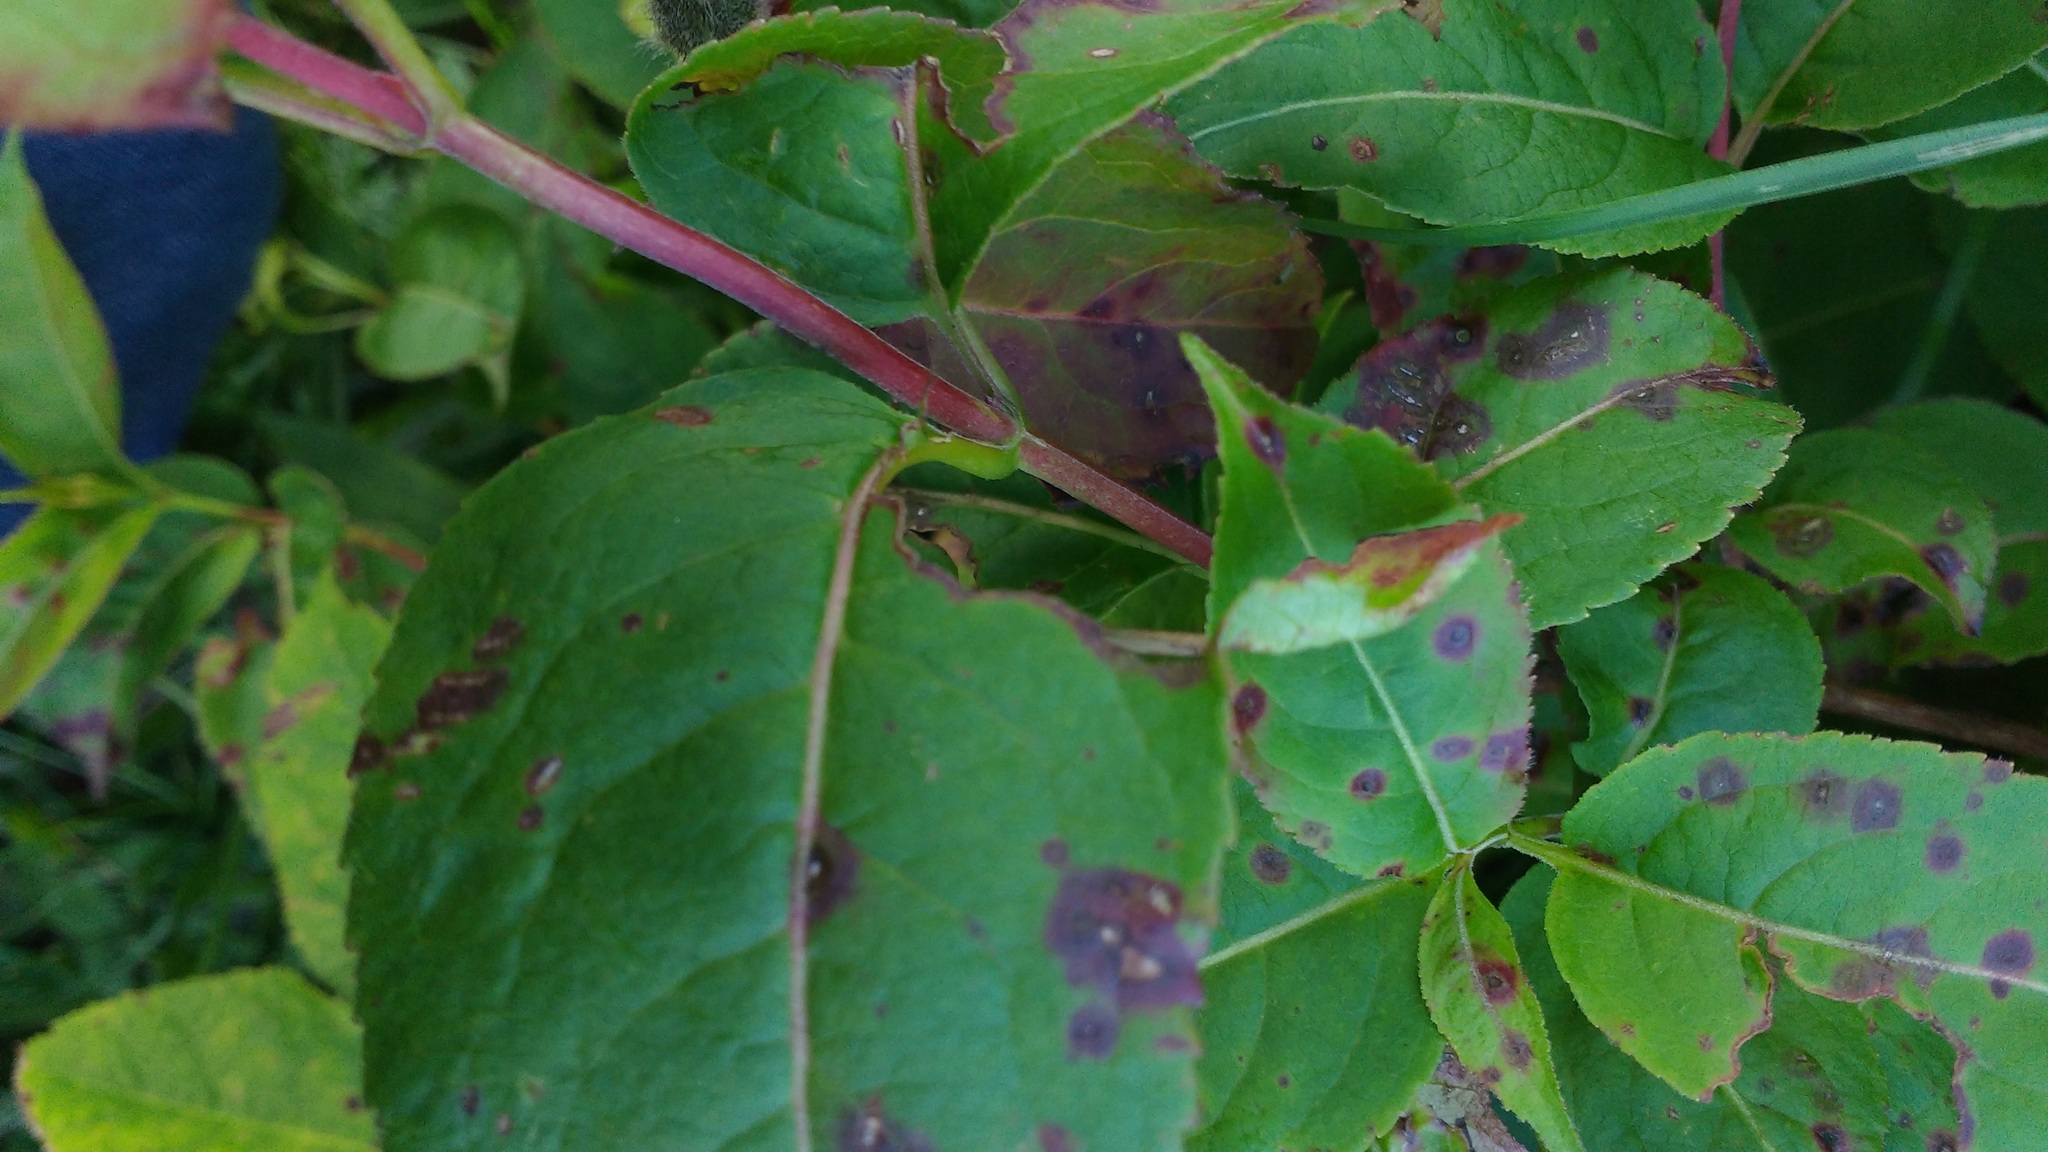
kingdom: Plantae
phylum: Tracheophyta
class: Magnoliopsida
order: Dipsacales
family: Caprifoliaceae
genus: Diervilla
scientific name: Diervilla lonicera
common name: Bush-honeysuckle
